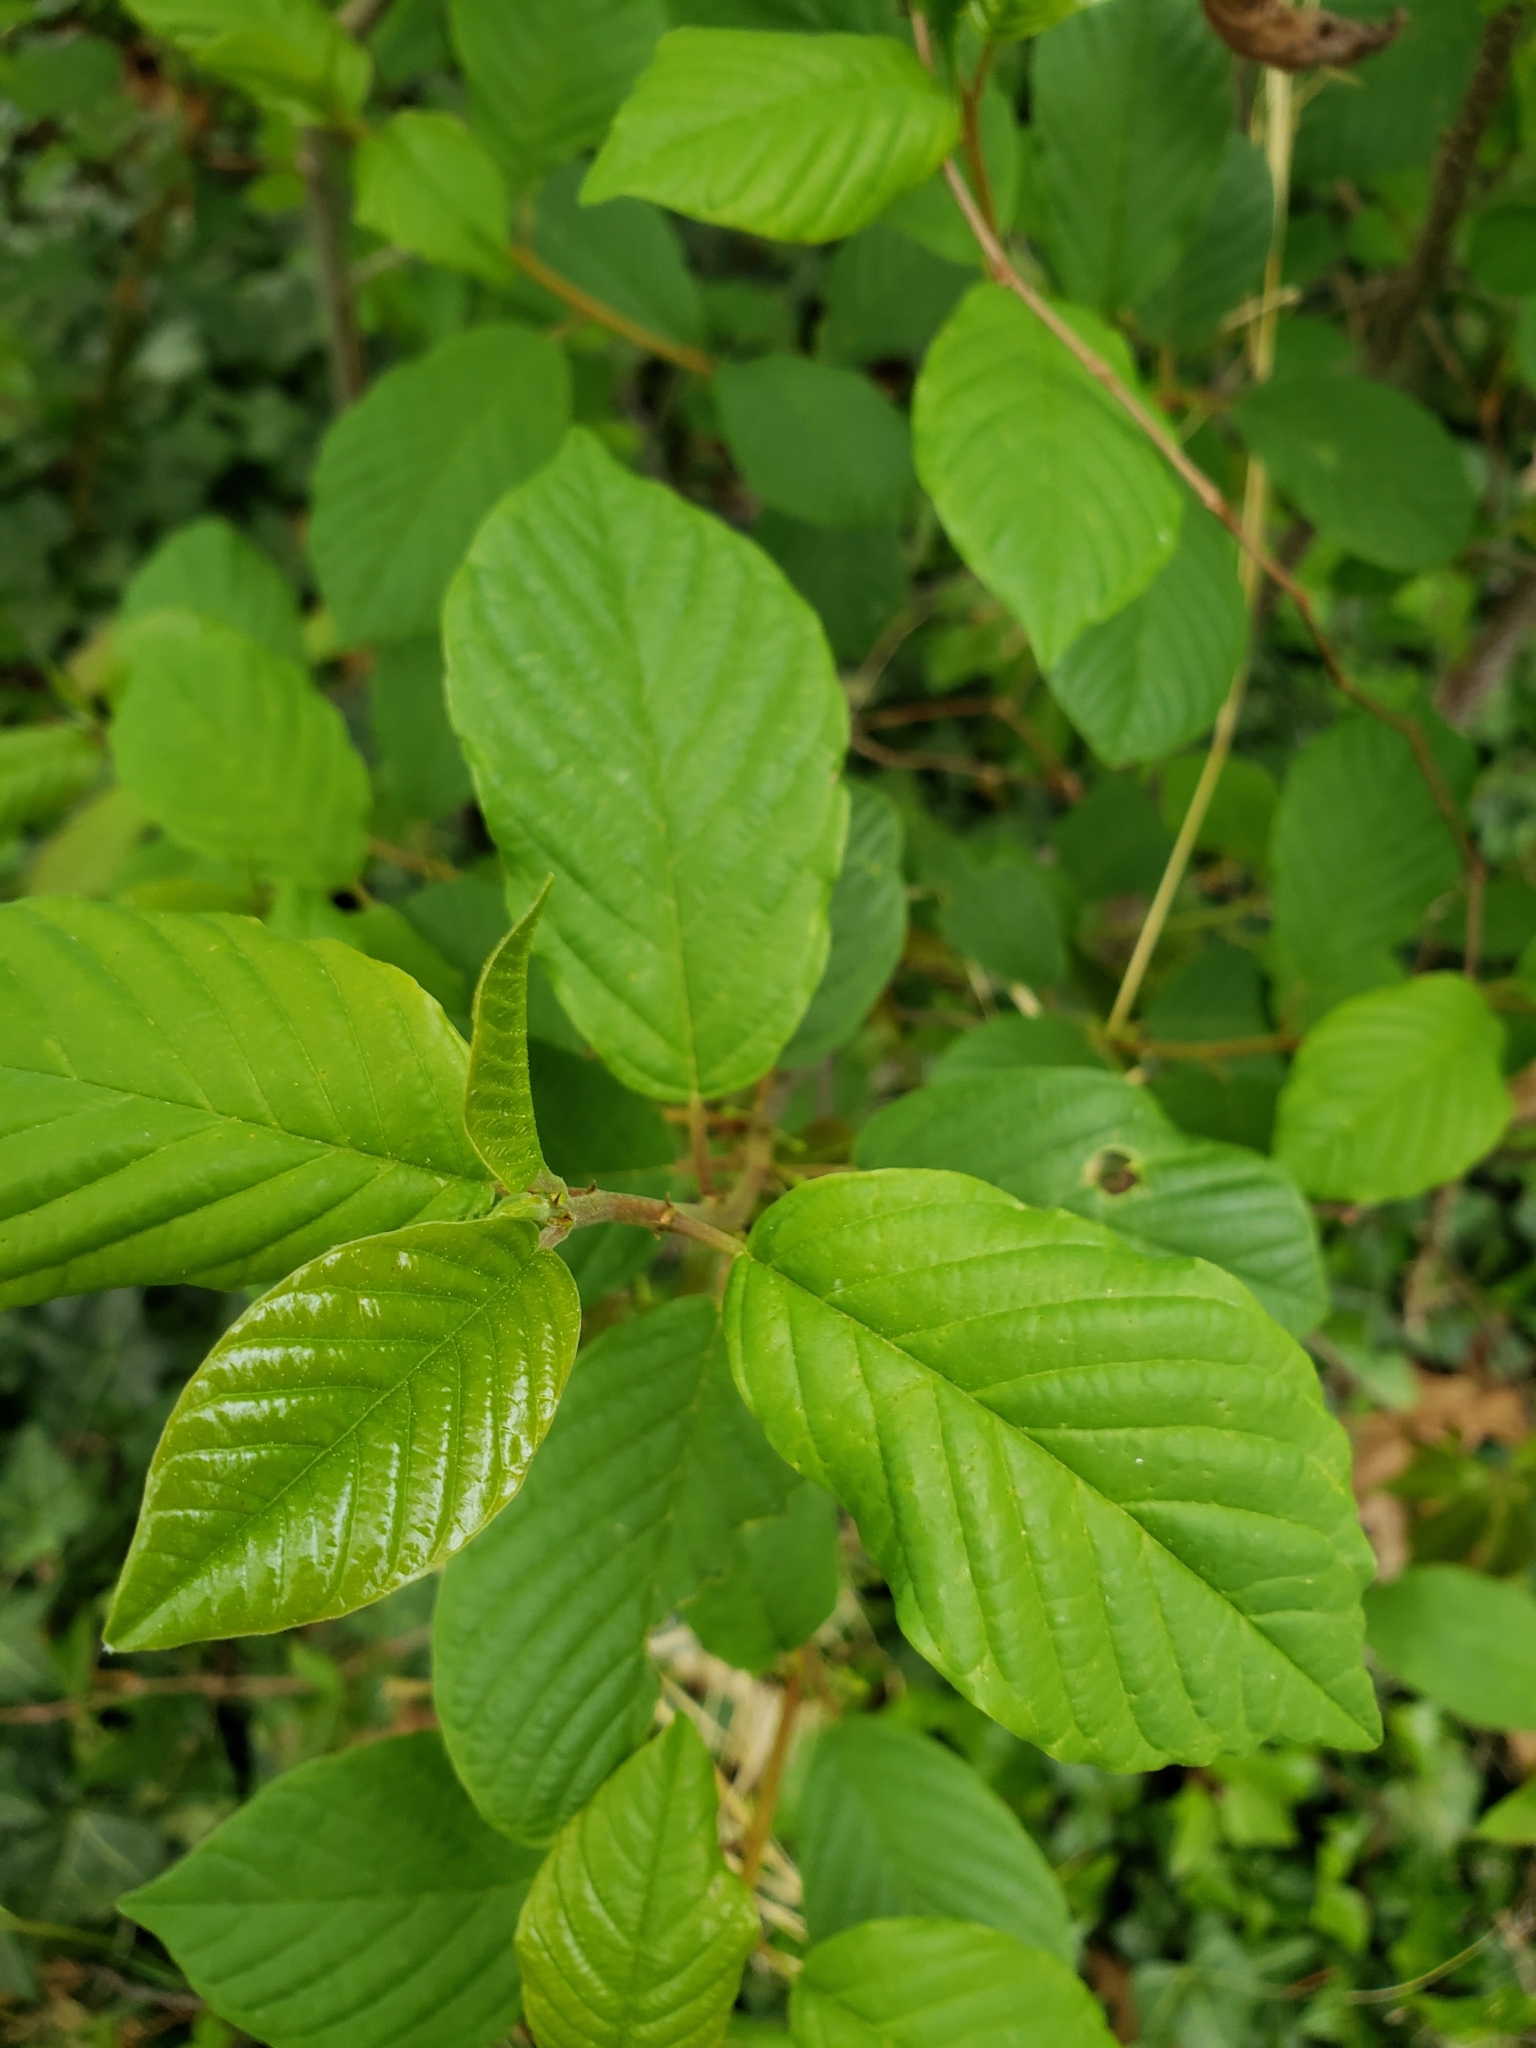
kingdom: Plantae
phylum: Tracheophyta
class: Magnoliopsida
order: Rosales
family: Rhamnaceae
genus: Frangula
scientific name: Frangula alnus
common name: Alder buckthorn
